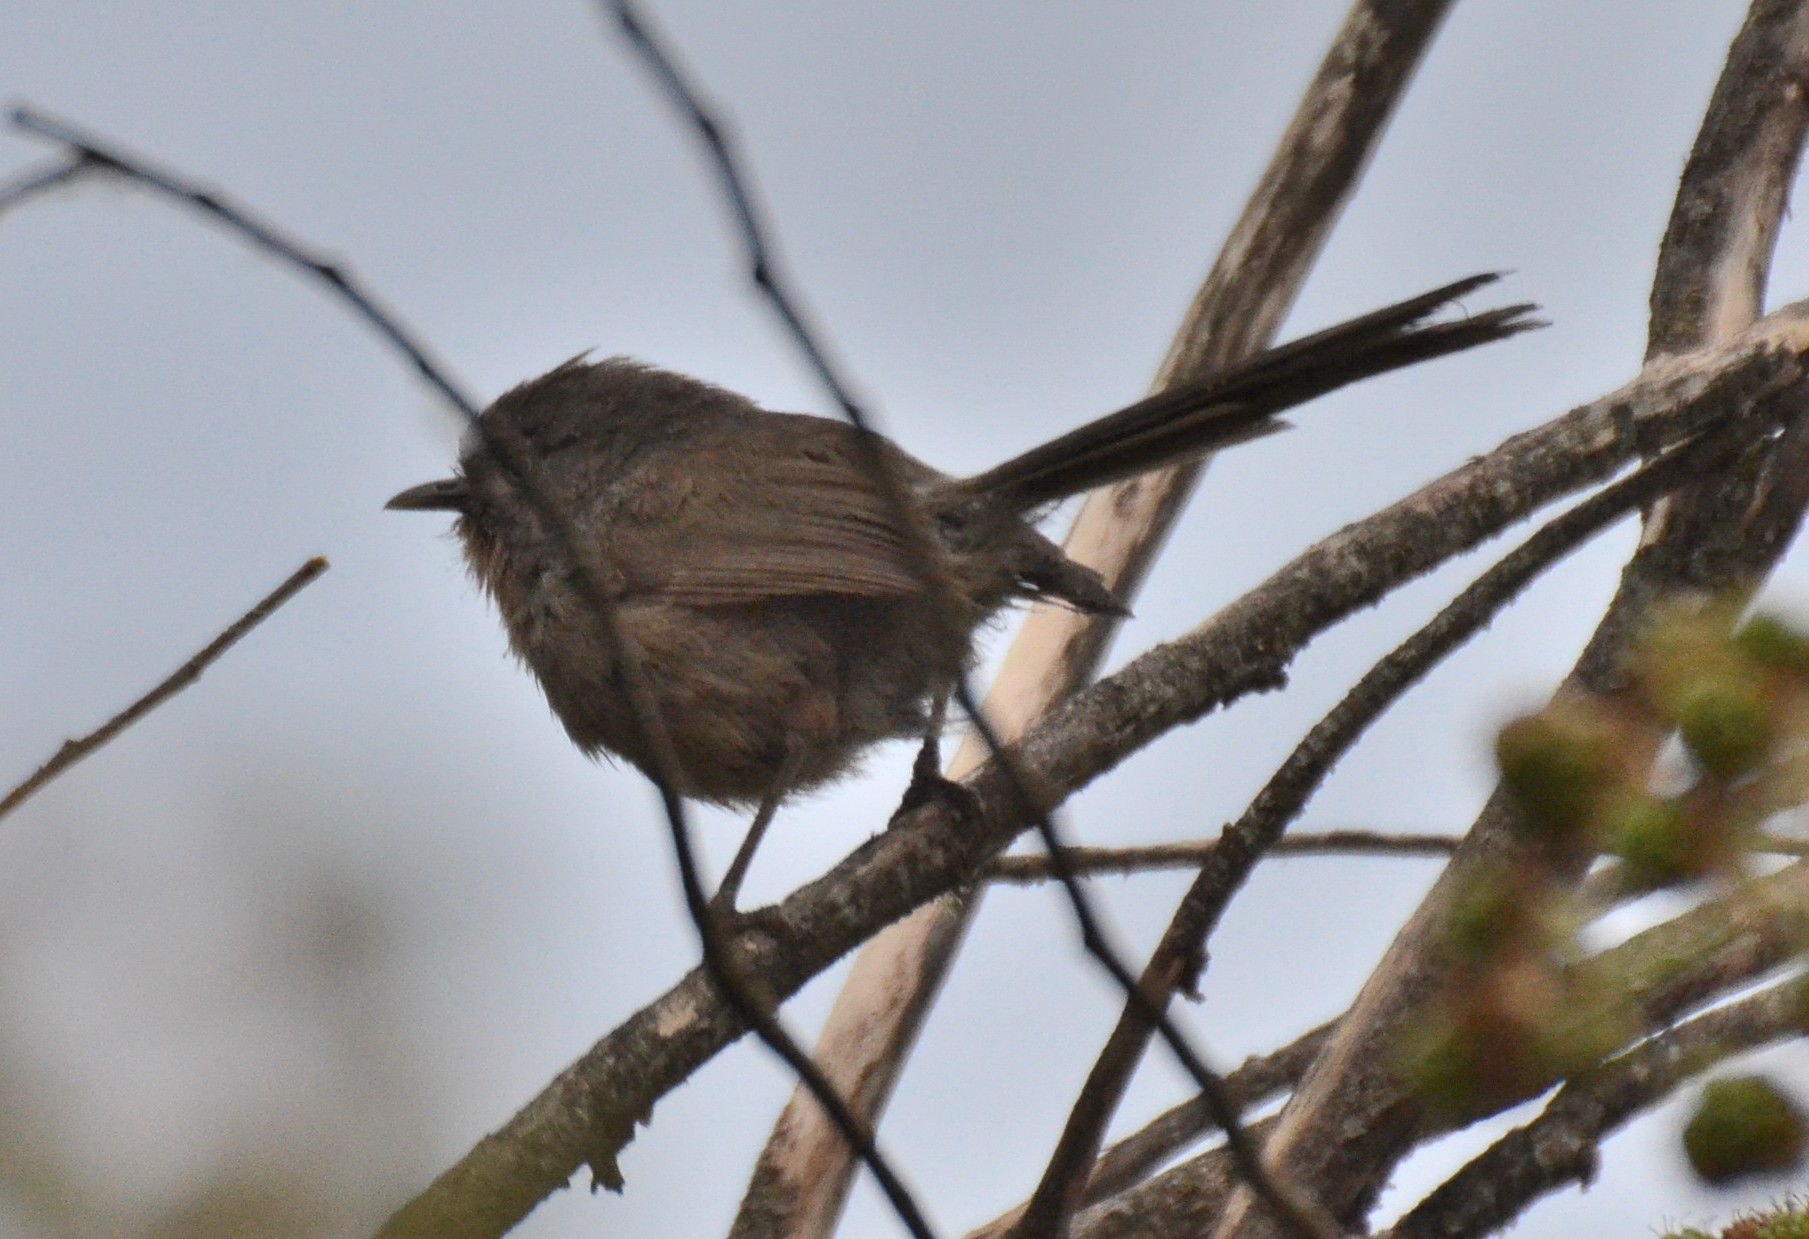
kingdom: Animalia
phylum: Chordata
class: Aves
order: Passeriformes
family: Sylviidae
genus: Chamaea
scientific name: Chamaea fasciata
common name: Wrentit
